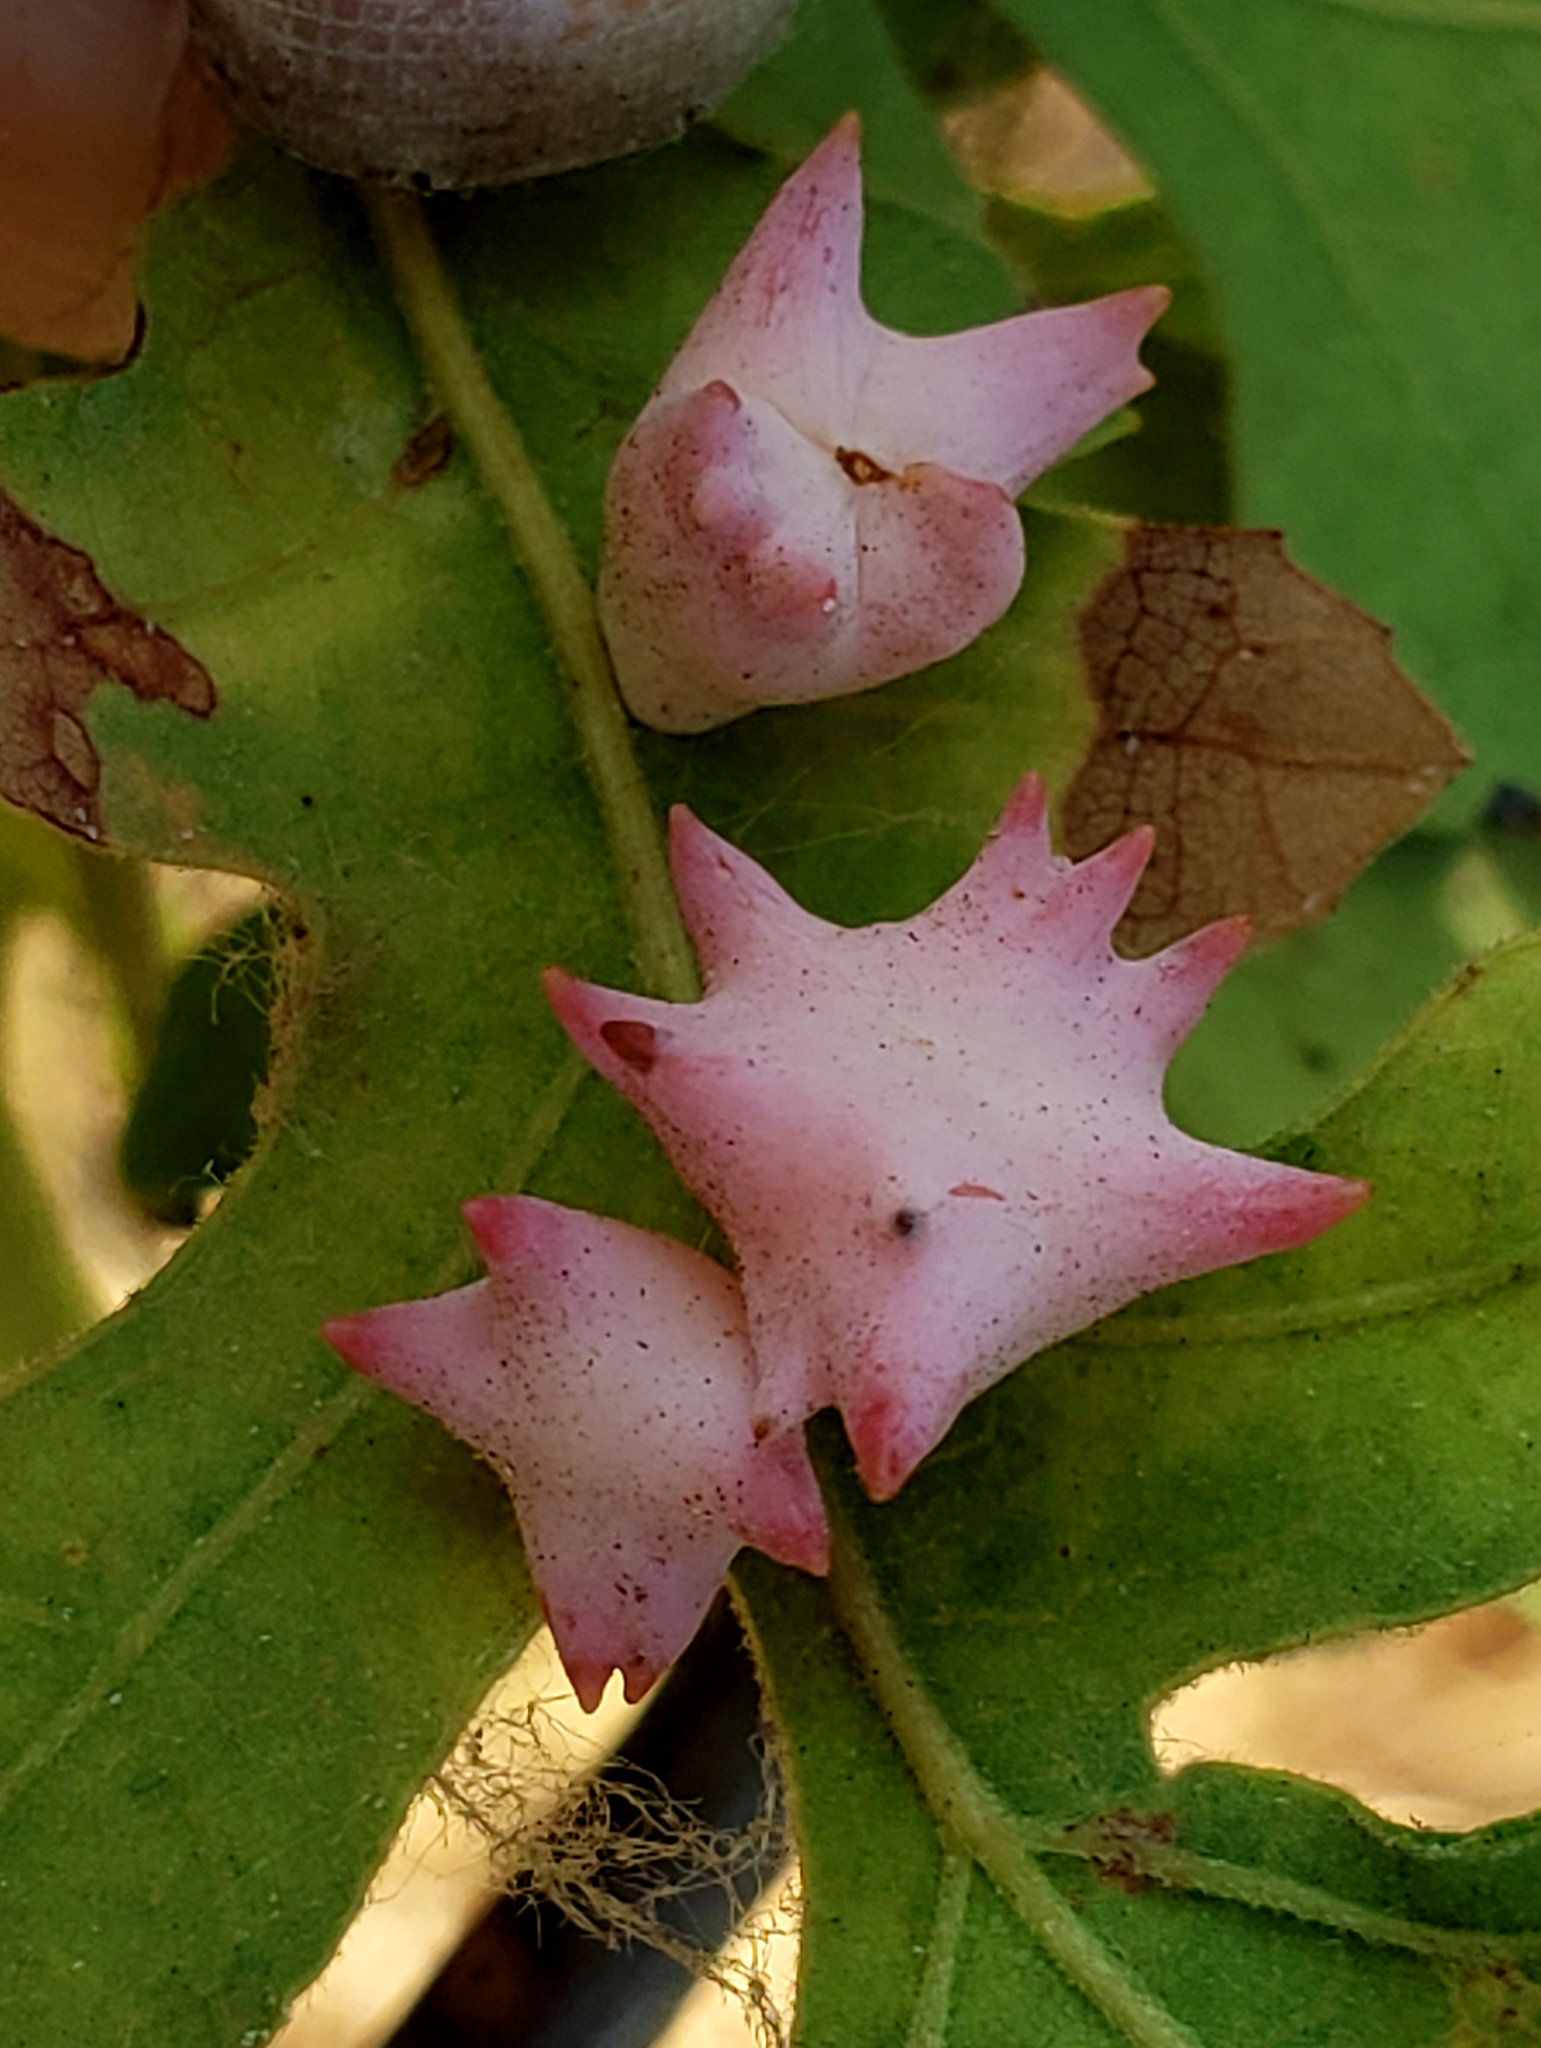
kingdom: Animalia
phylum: Arthropoda
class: Insecta
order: Hymenoptera
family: Cynipidae
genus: Cynips
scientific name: Cynips douglasi
